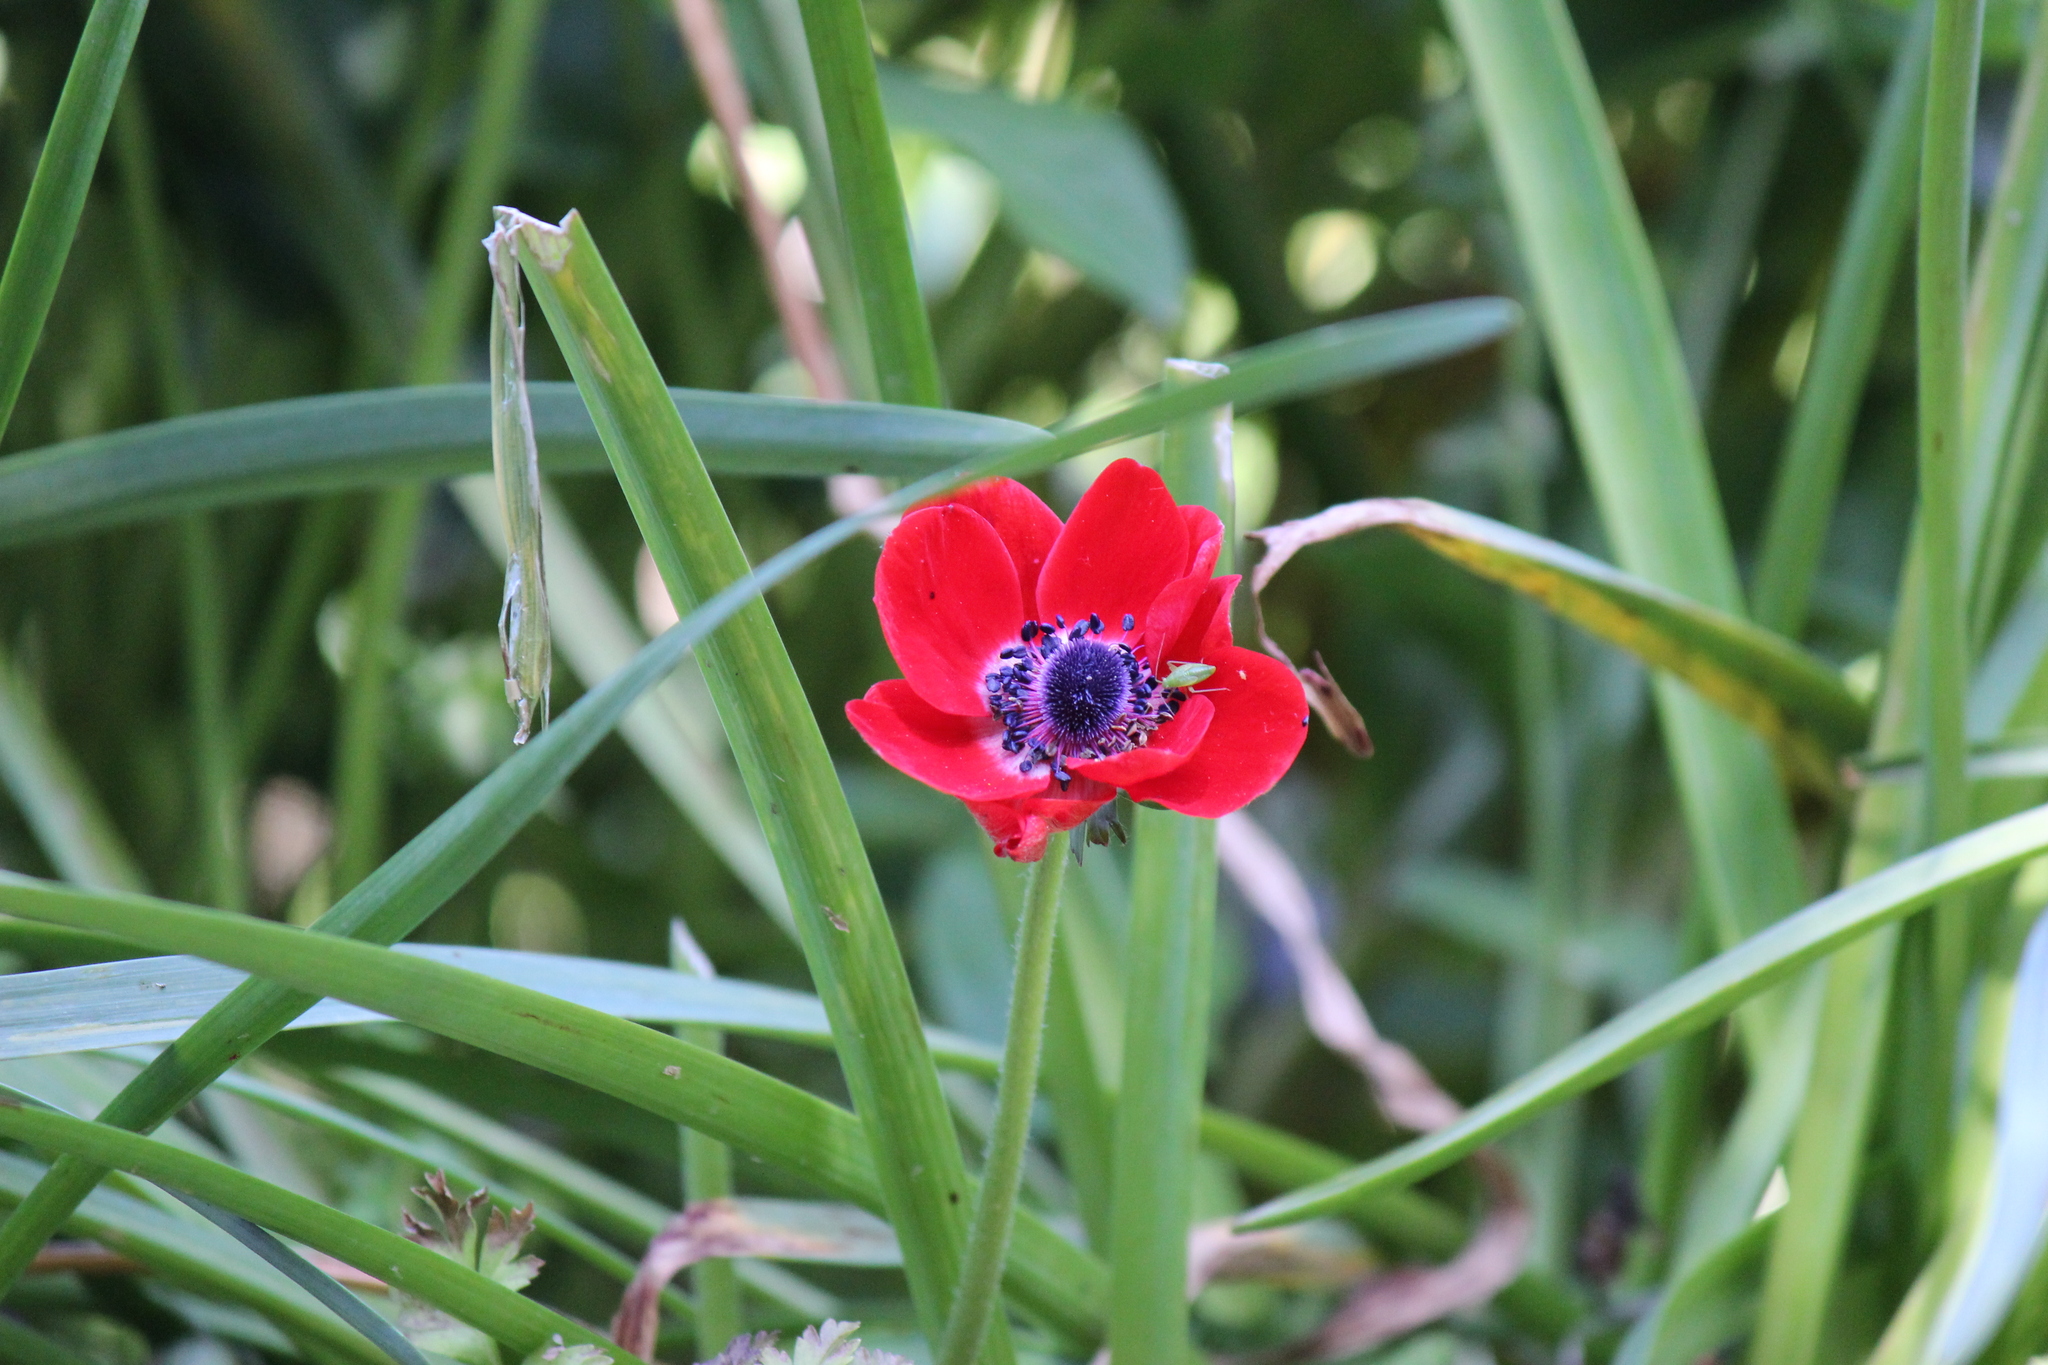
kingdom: Plantae
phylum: Tracheophyta
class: Magnoliopsida
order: Ranunculales
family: Ranunculaceae
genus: Anemone
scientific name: Anemone coronaria
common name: Poppy anemone
